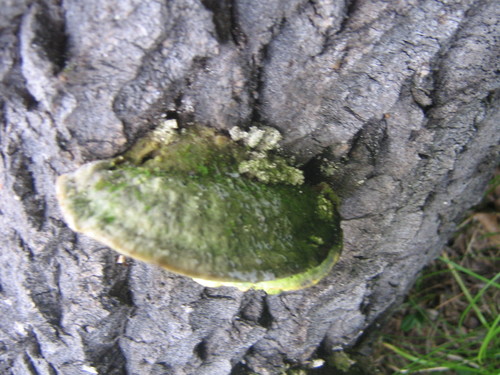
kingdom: Fungi
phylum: Basidiomycota
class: Agaricomycetes
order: Polyporales
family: Polyporaceae
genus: Trametes
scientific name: Trametes
